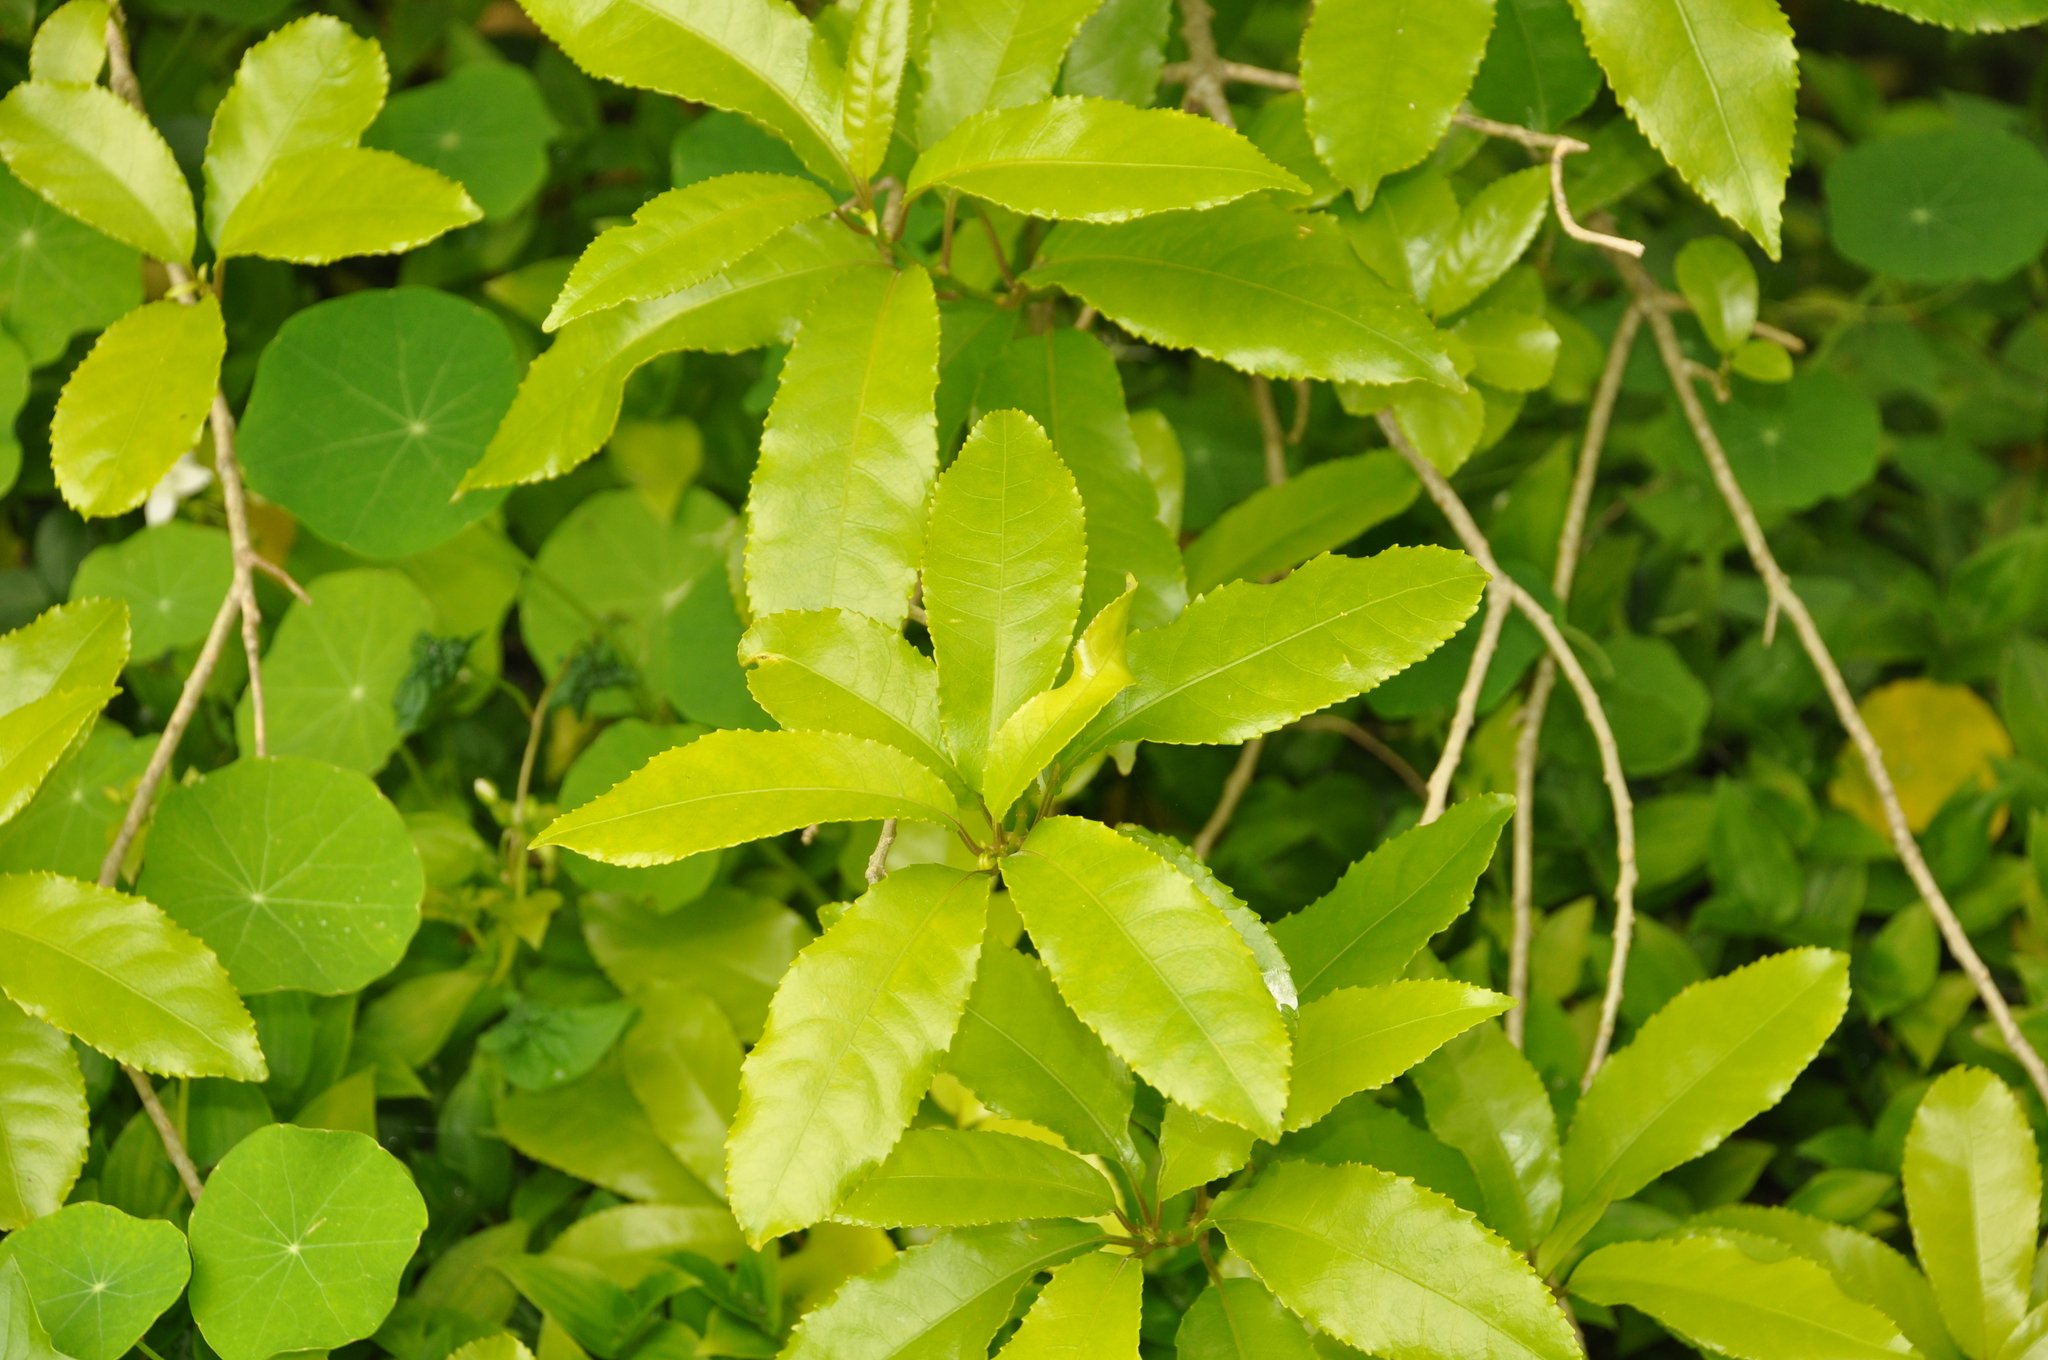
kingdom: Plantae
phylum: Tracheophyta
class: Magnoliopsida
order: Malpighiales
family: Violaceae
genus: Melicytus
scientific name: Melicytus ramiflorus
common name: Mahoe
